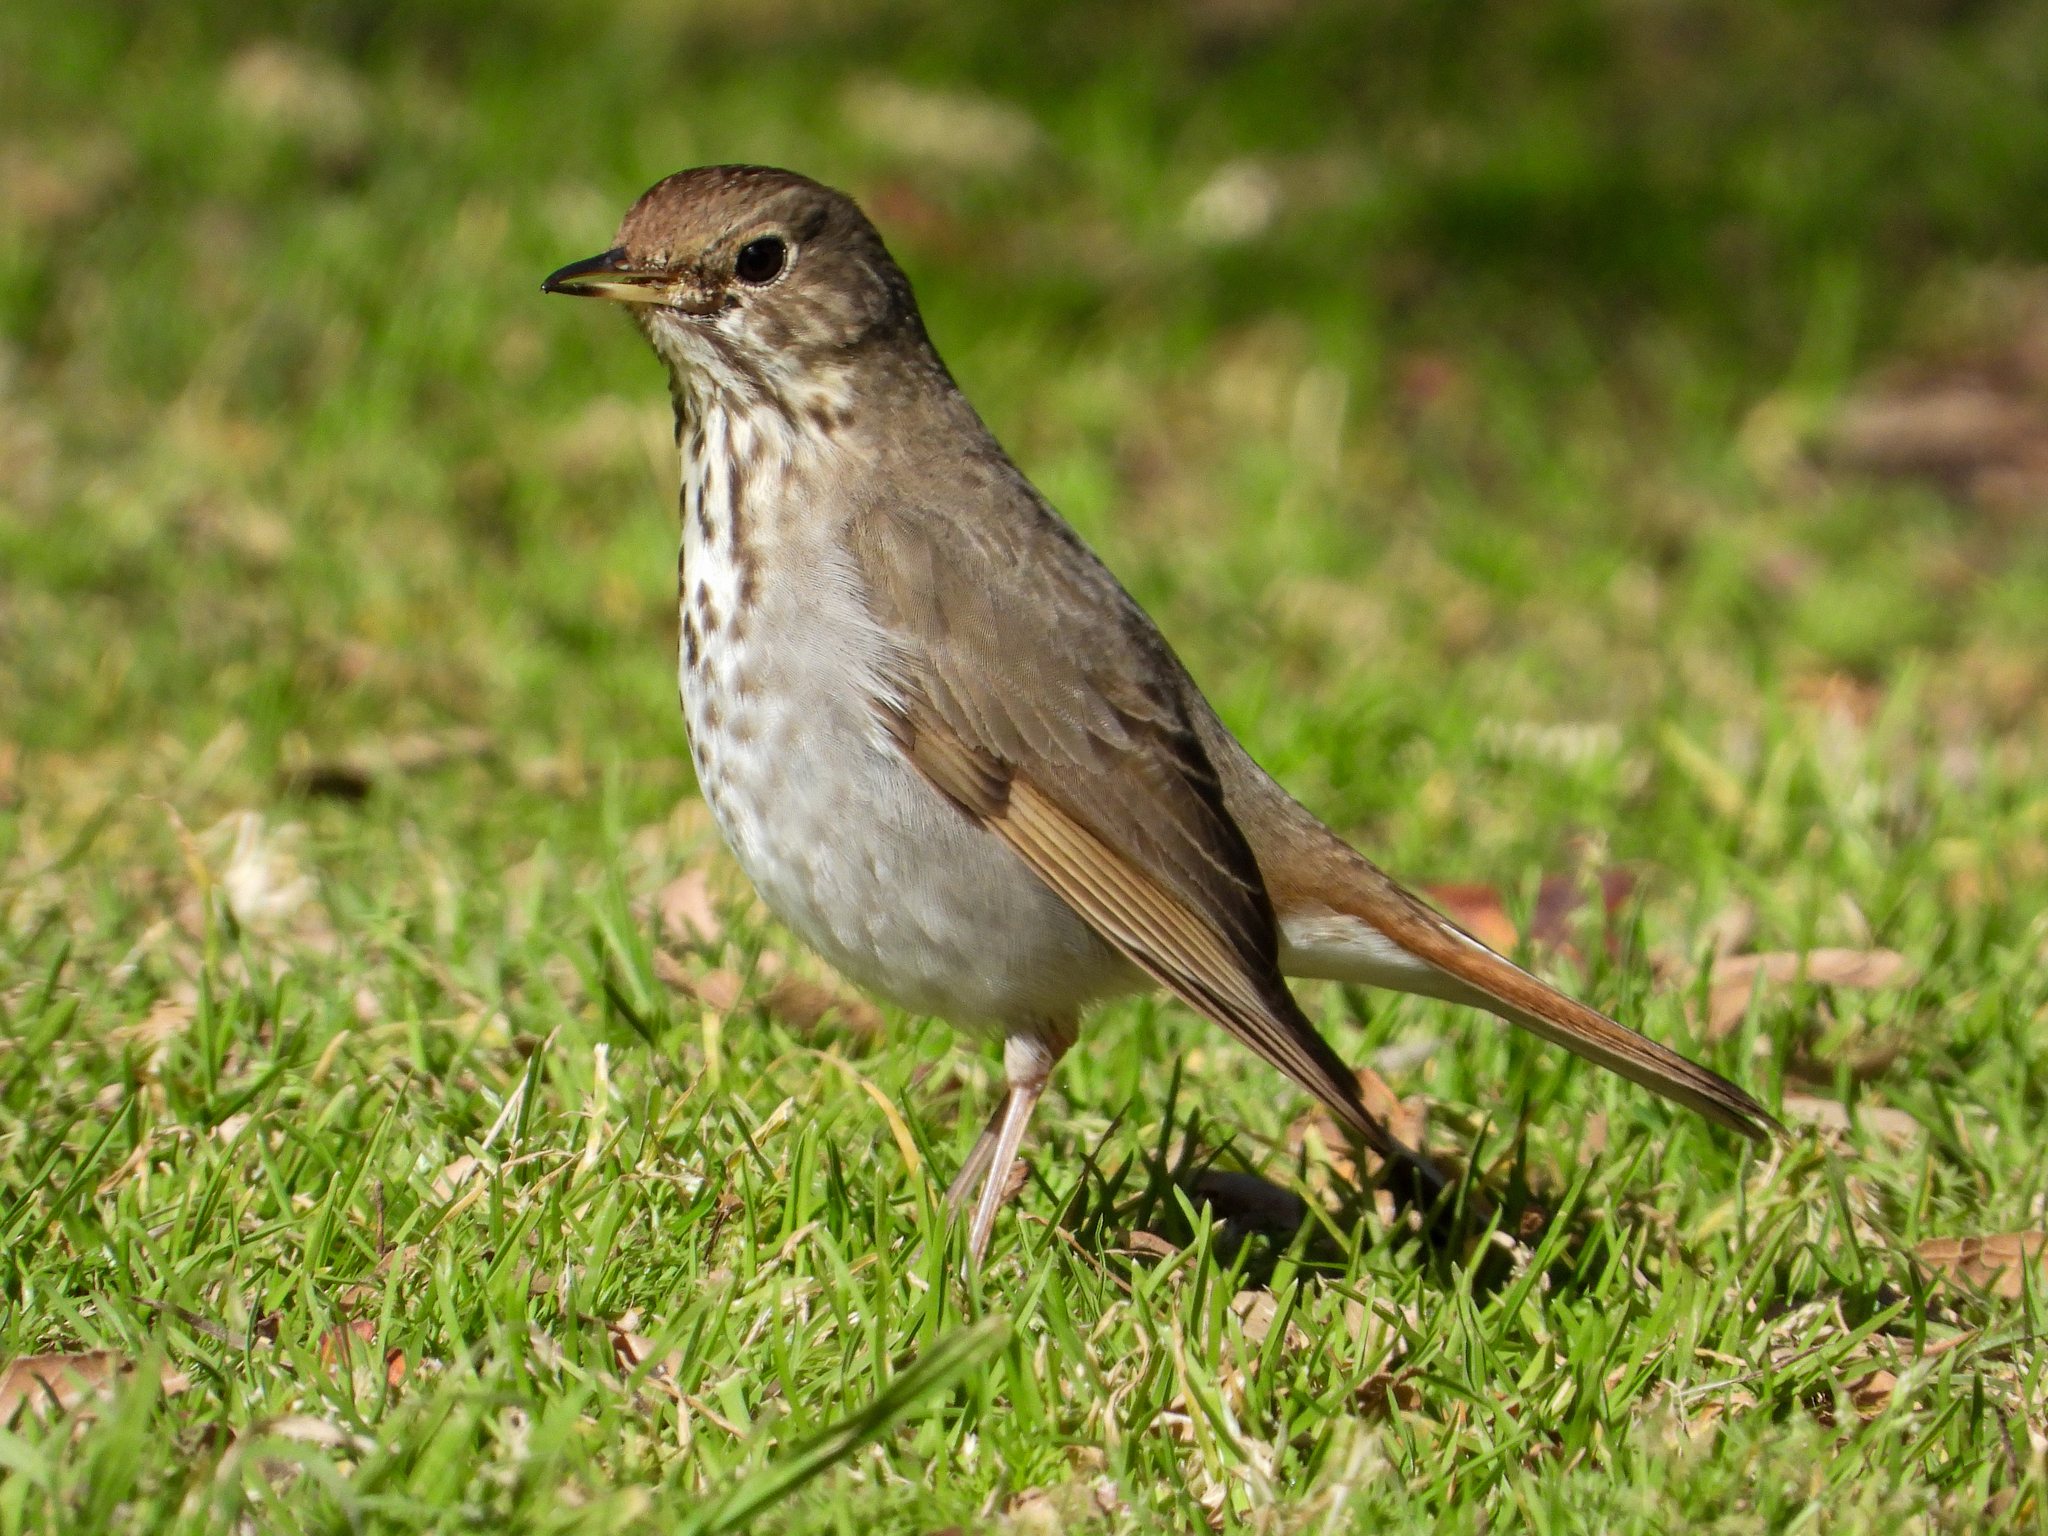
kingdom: Animalia
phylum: Chordata
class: Aves
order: Passeriformes
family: Turdidae
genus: Catharus
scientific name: Catharus guttatus
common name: Hermit thrush
